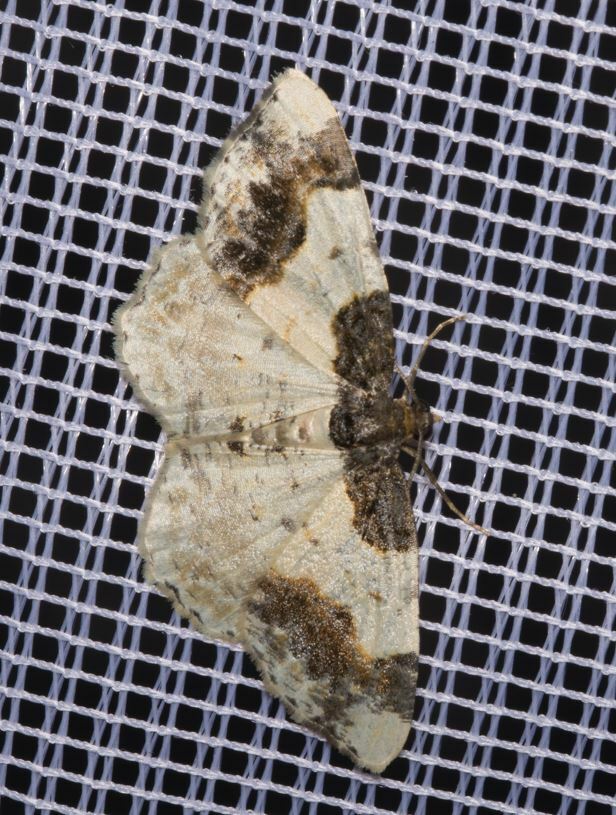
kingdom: Animalia
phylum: Arthropoda
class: Insecta
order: Lepidoptera
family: Geometridae
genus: Ligdia
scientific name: Ligdia adustata
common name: Scorched carpet
